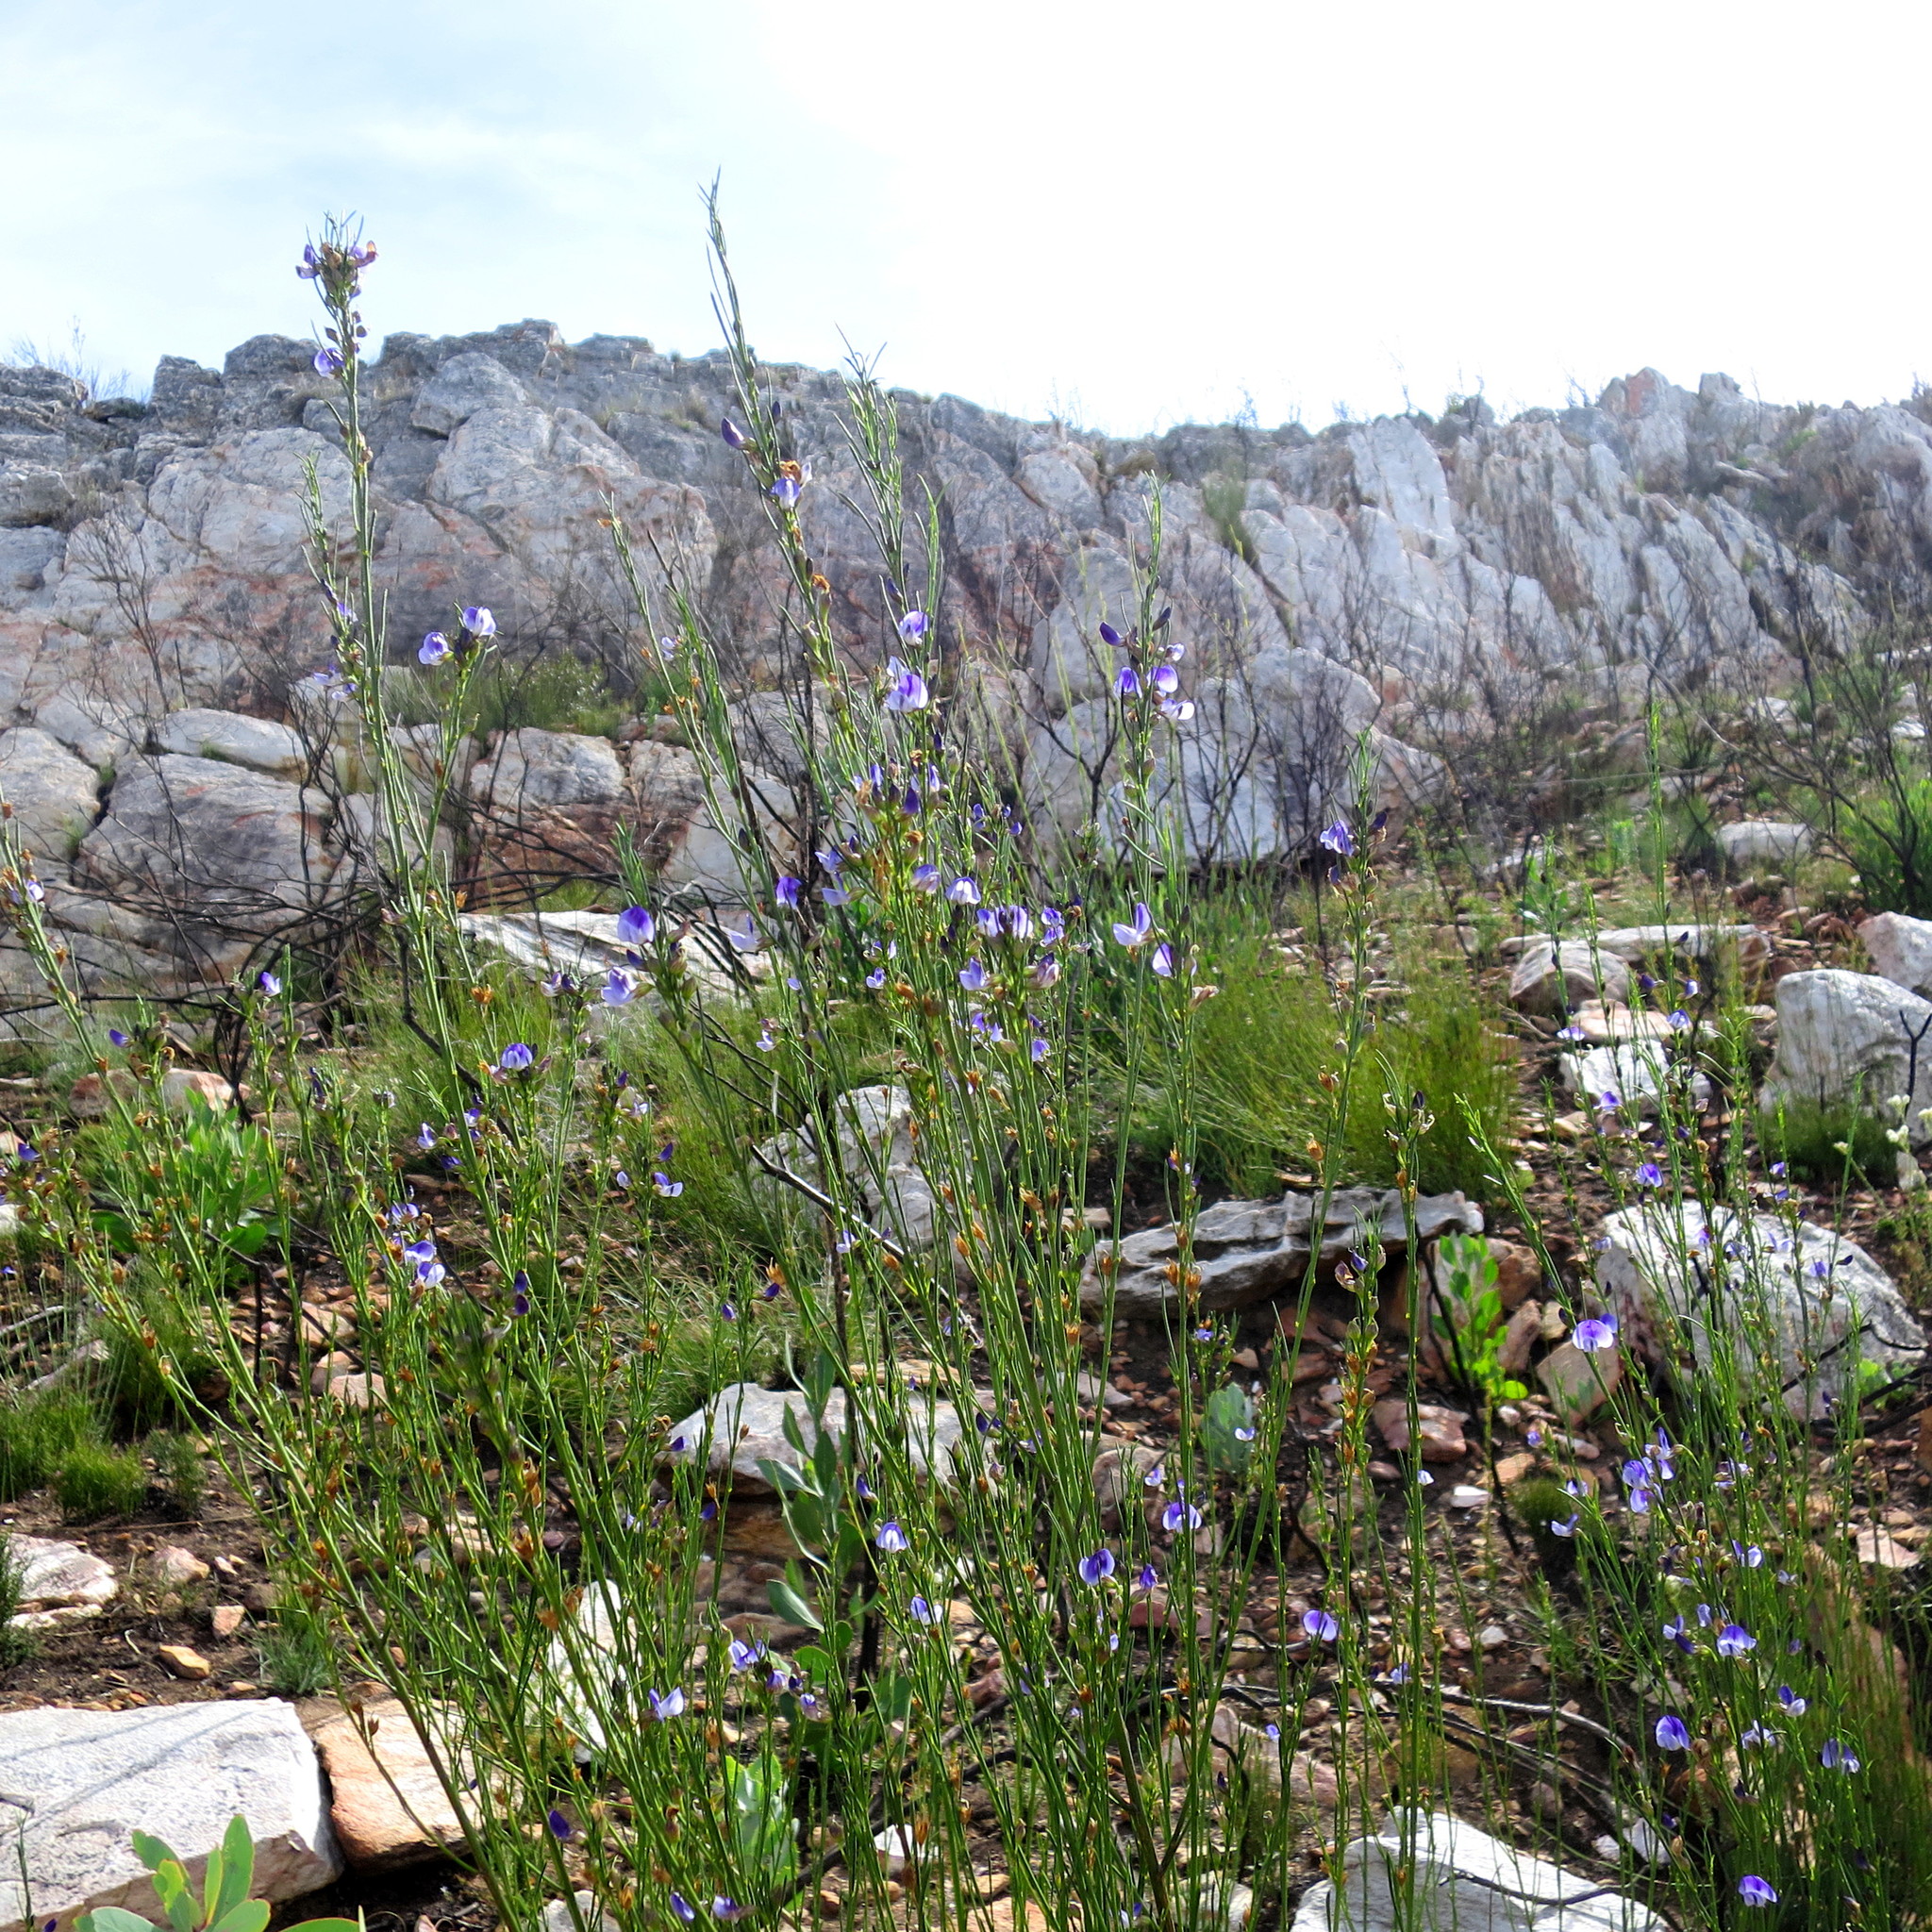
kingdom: Plantae
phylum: Tracheophyta
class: Magnoliopsida
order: Fabales
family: Fabaceae
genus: Psoralea
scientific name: Psoralea diturnerae
